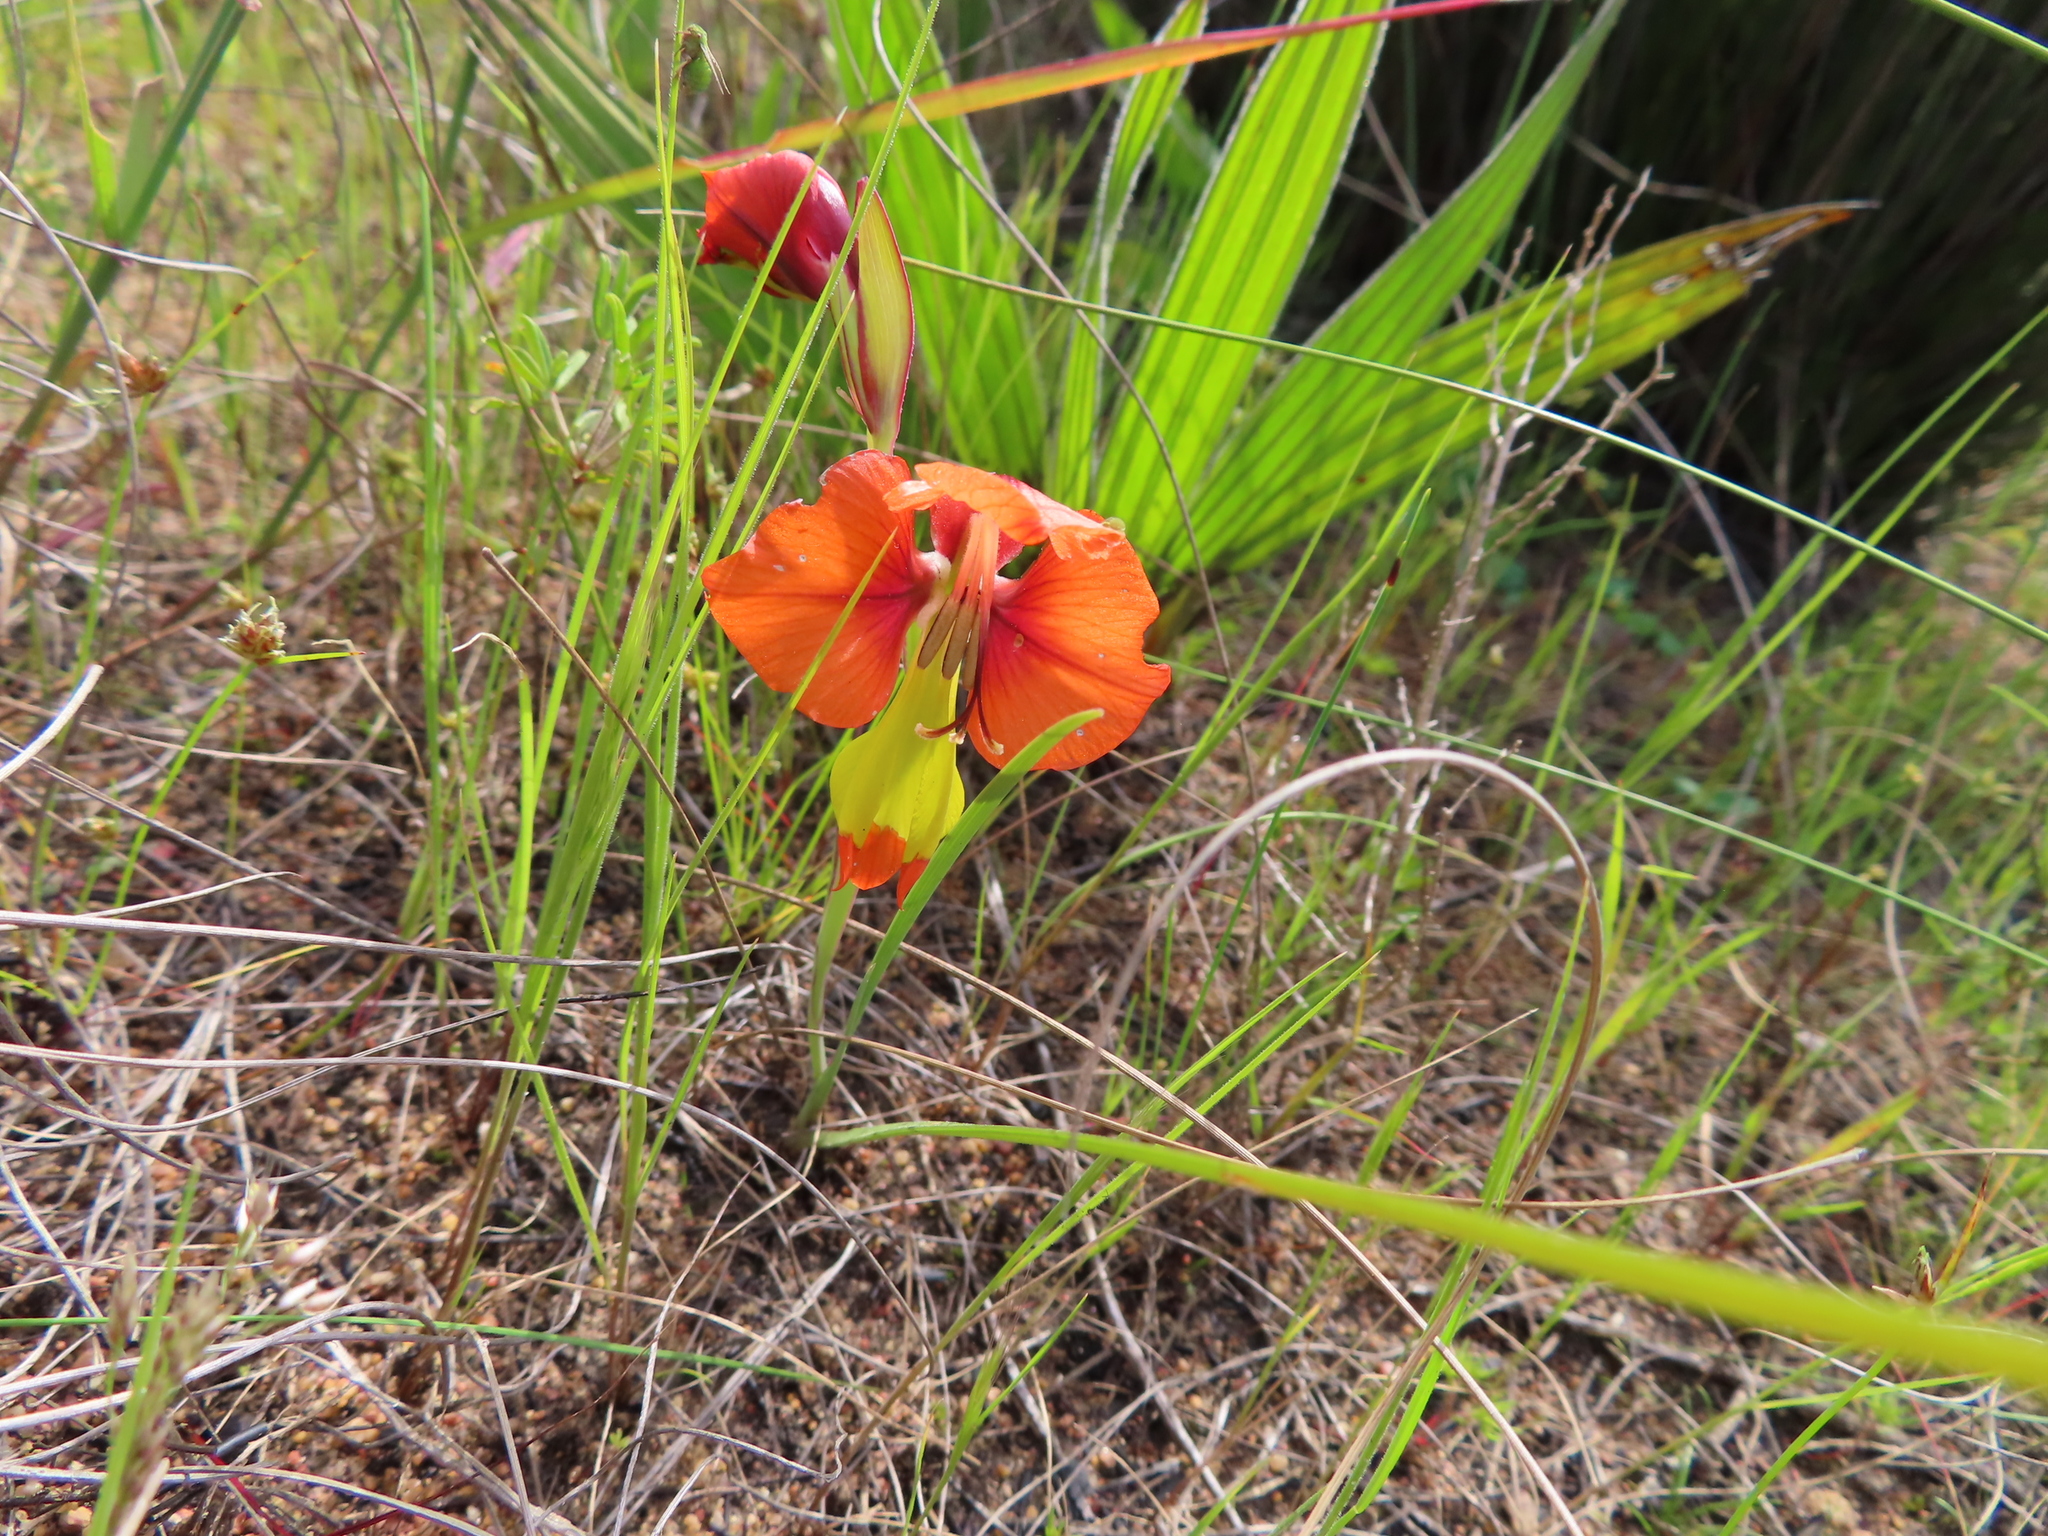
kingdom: Plantae
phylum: Tracheophyta
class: Liliopsida
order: Asparagales
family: Iridaceae
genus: Gladiolus
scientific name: Gladiolus alatus
